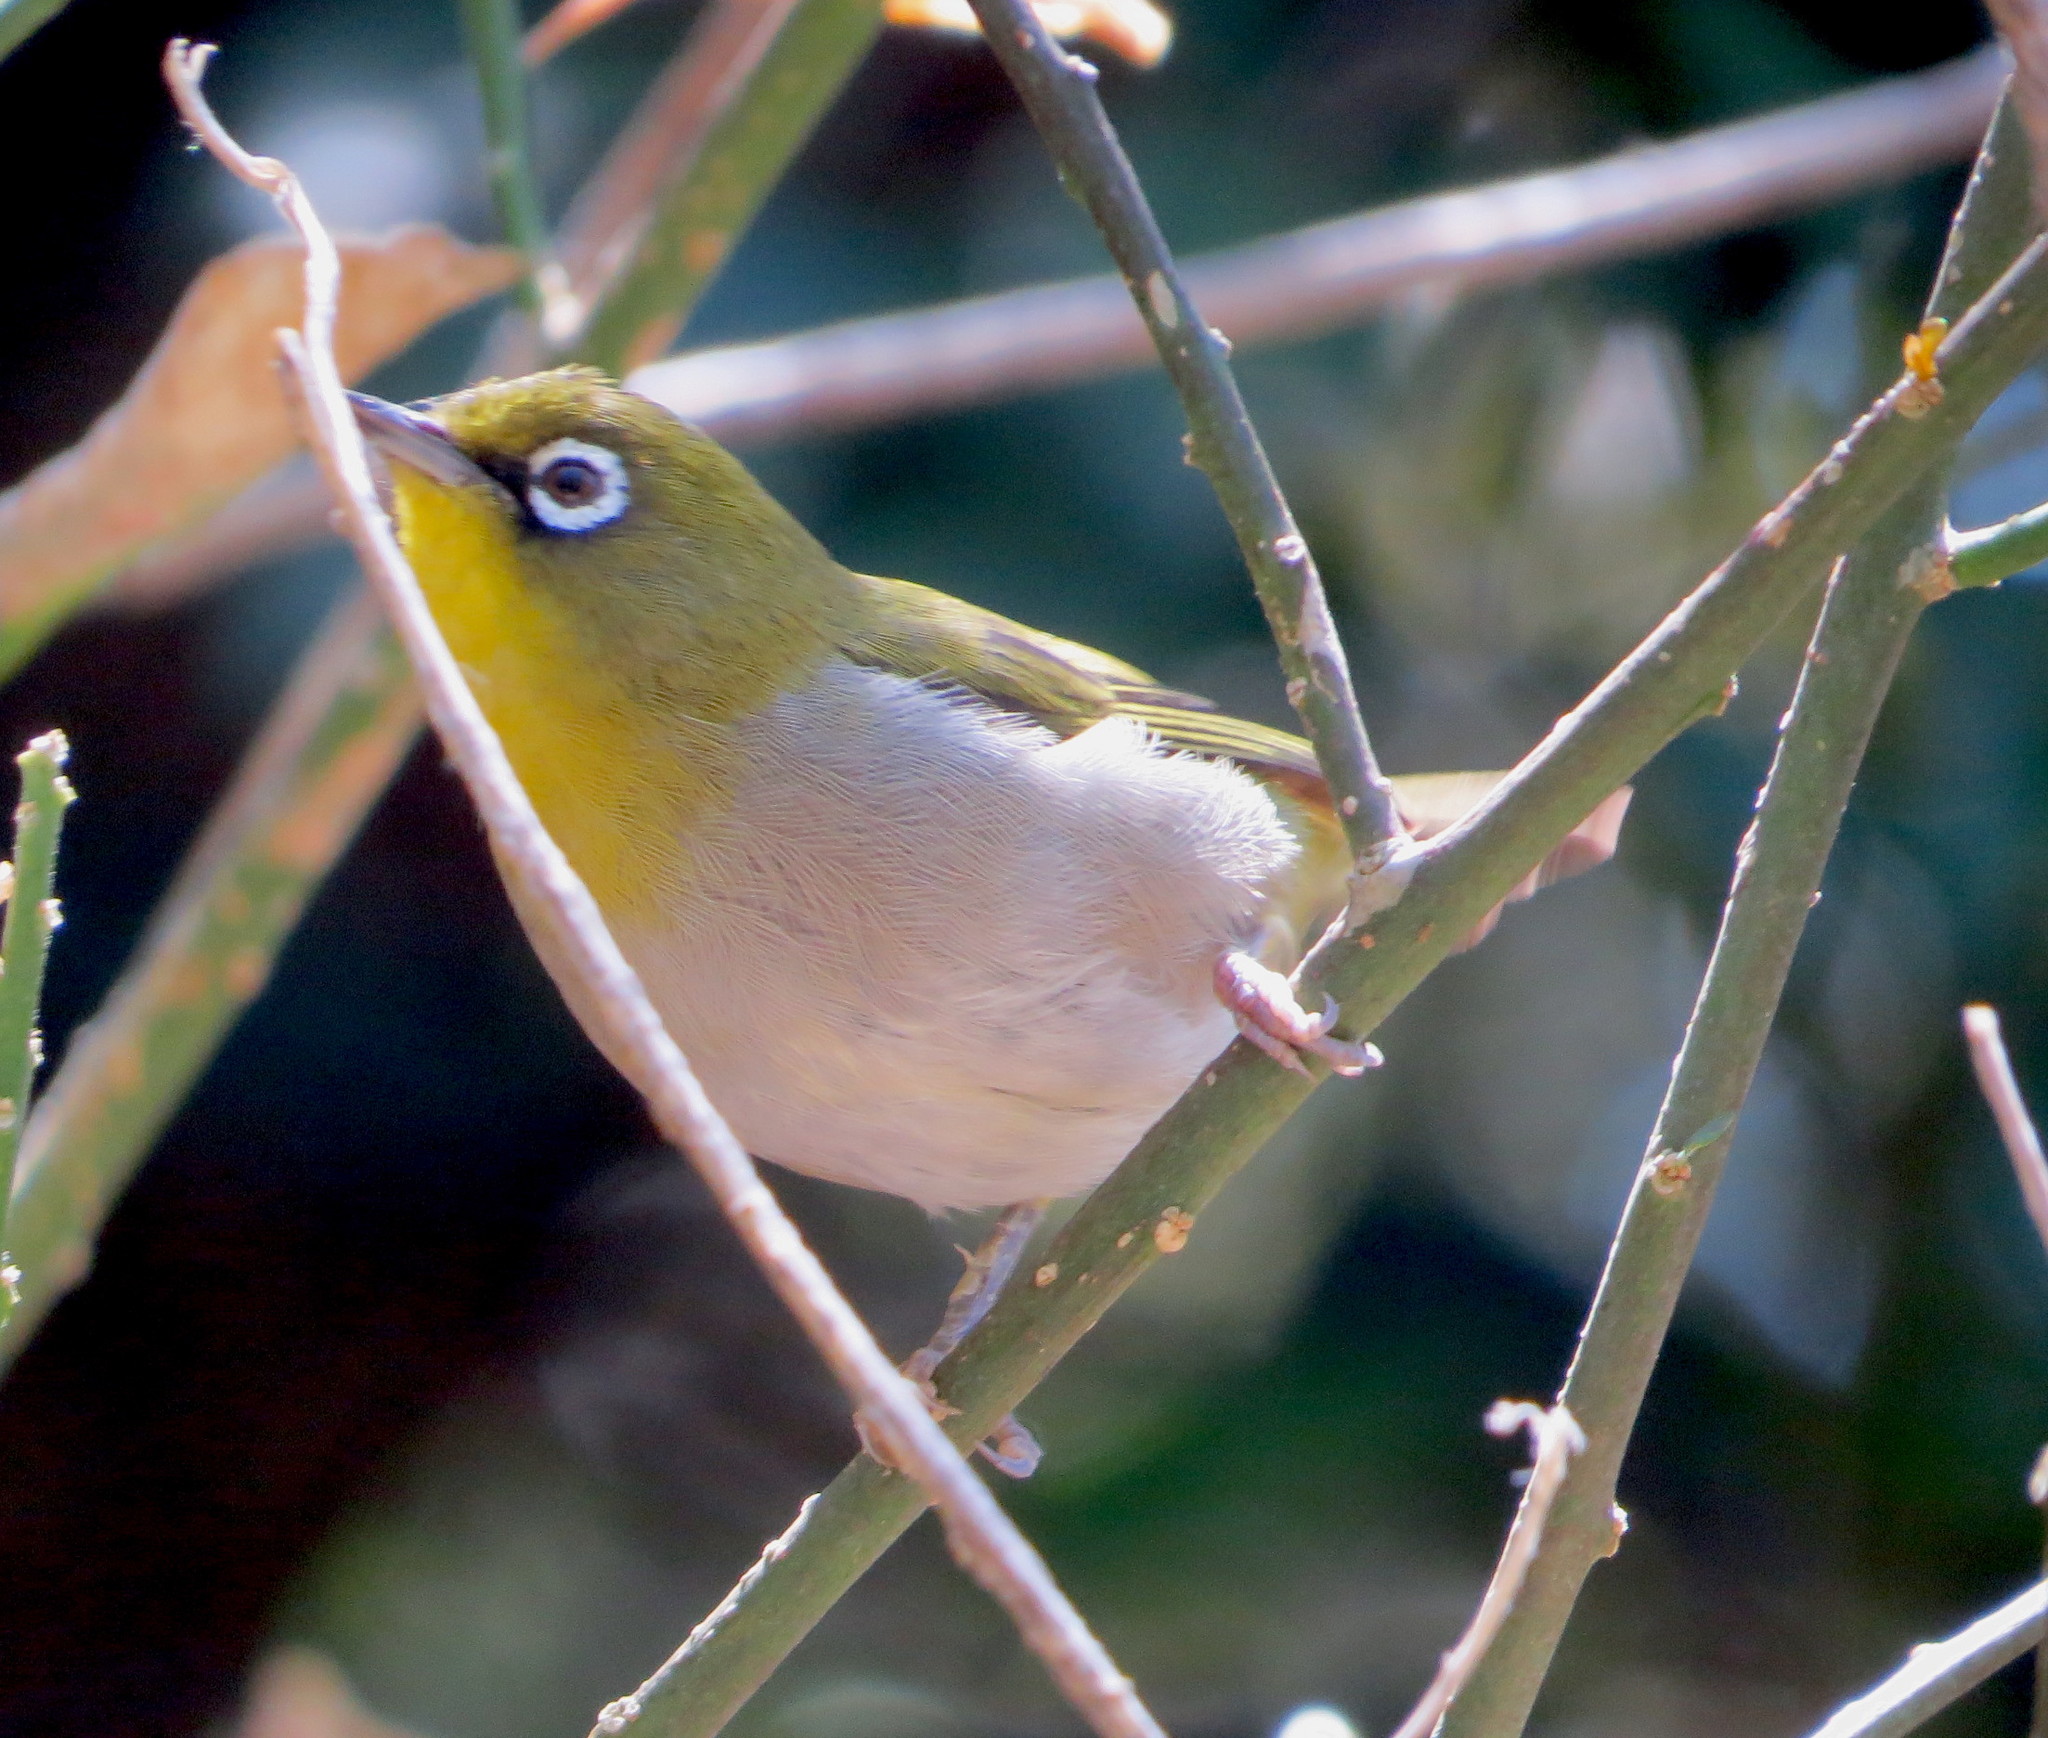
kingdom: Animalia
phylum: Chordata
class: Aves
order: Passeriformes
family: Zosteropidae
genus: Zosterops
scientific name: Zosterops virens
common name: Cape white-eye
